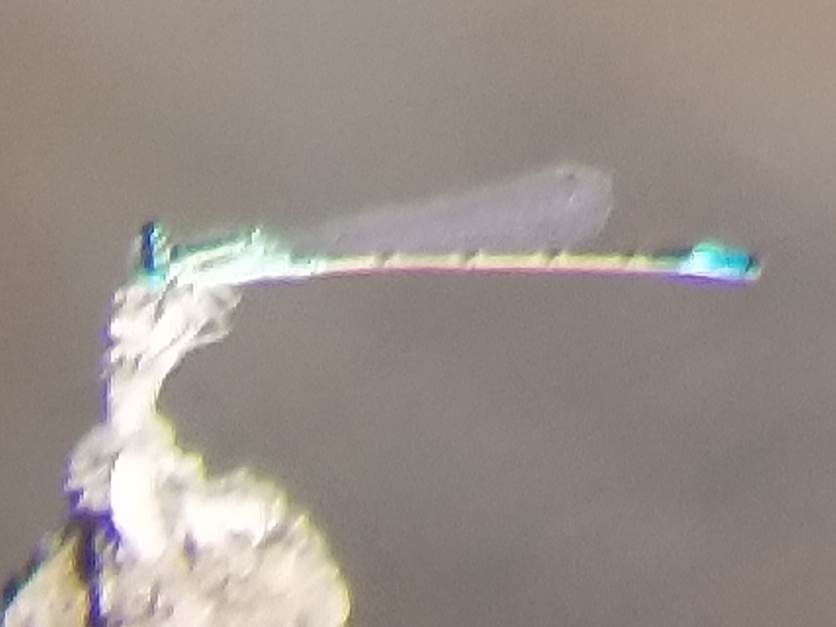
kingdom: Animalia
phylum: Arthropoda
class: Insecta
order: Odonata
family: Coenagrionidae
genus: Ischnura
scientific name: Ischnura barberi
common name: Desert forktail
